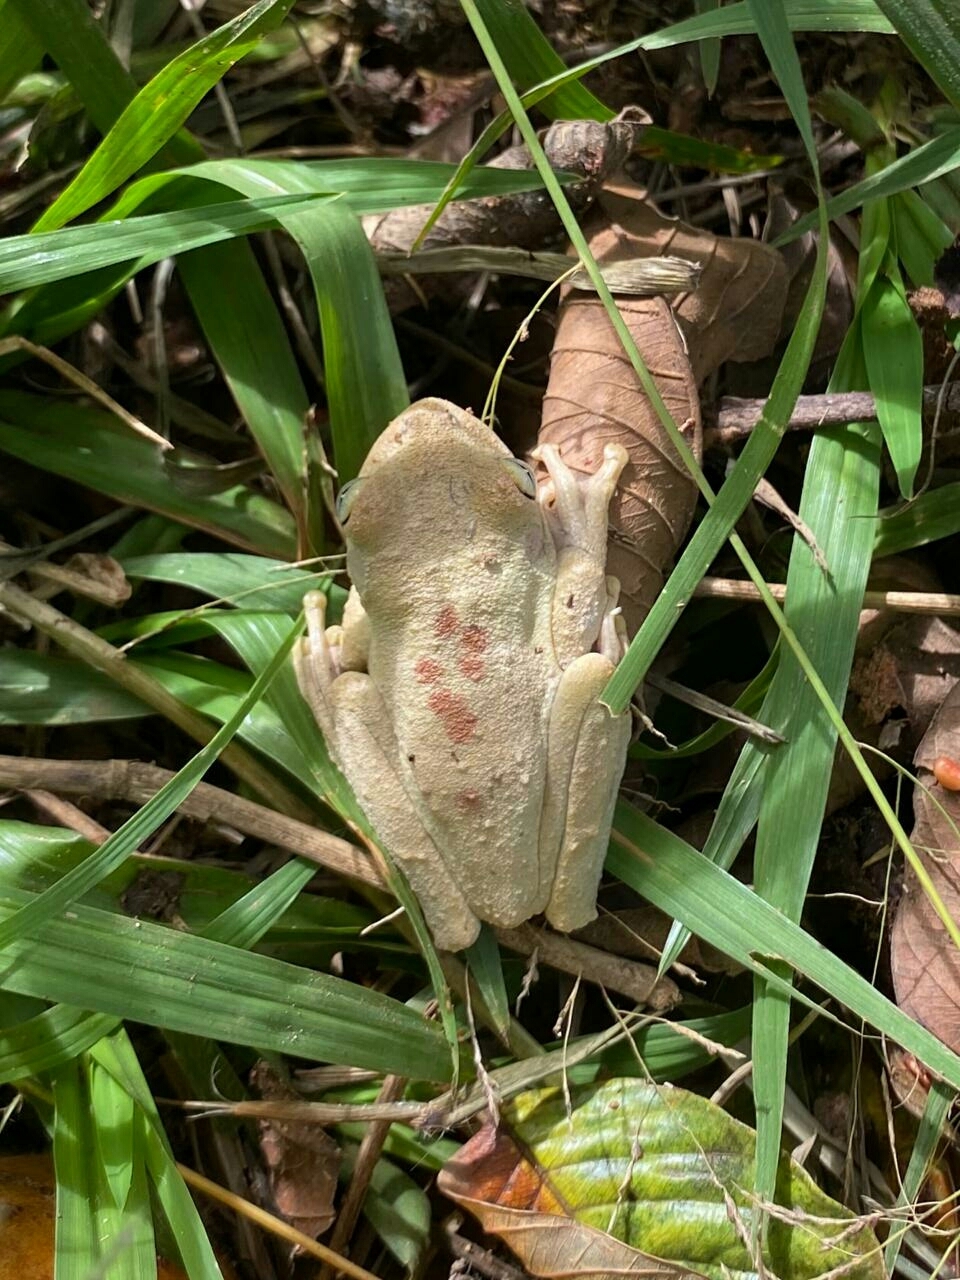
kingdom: Animalia
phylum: Chordata
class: Amphibia
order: Anura
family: Hylidae
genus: Boana
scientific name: Boana lundii
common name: Lund's treefrog
